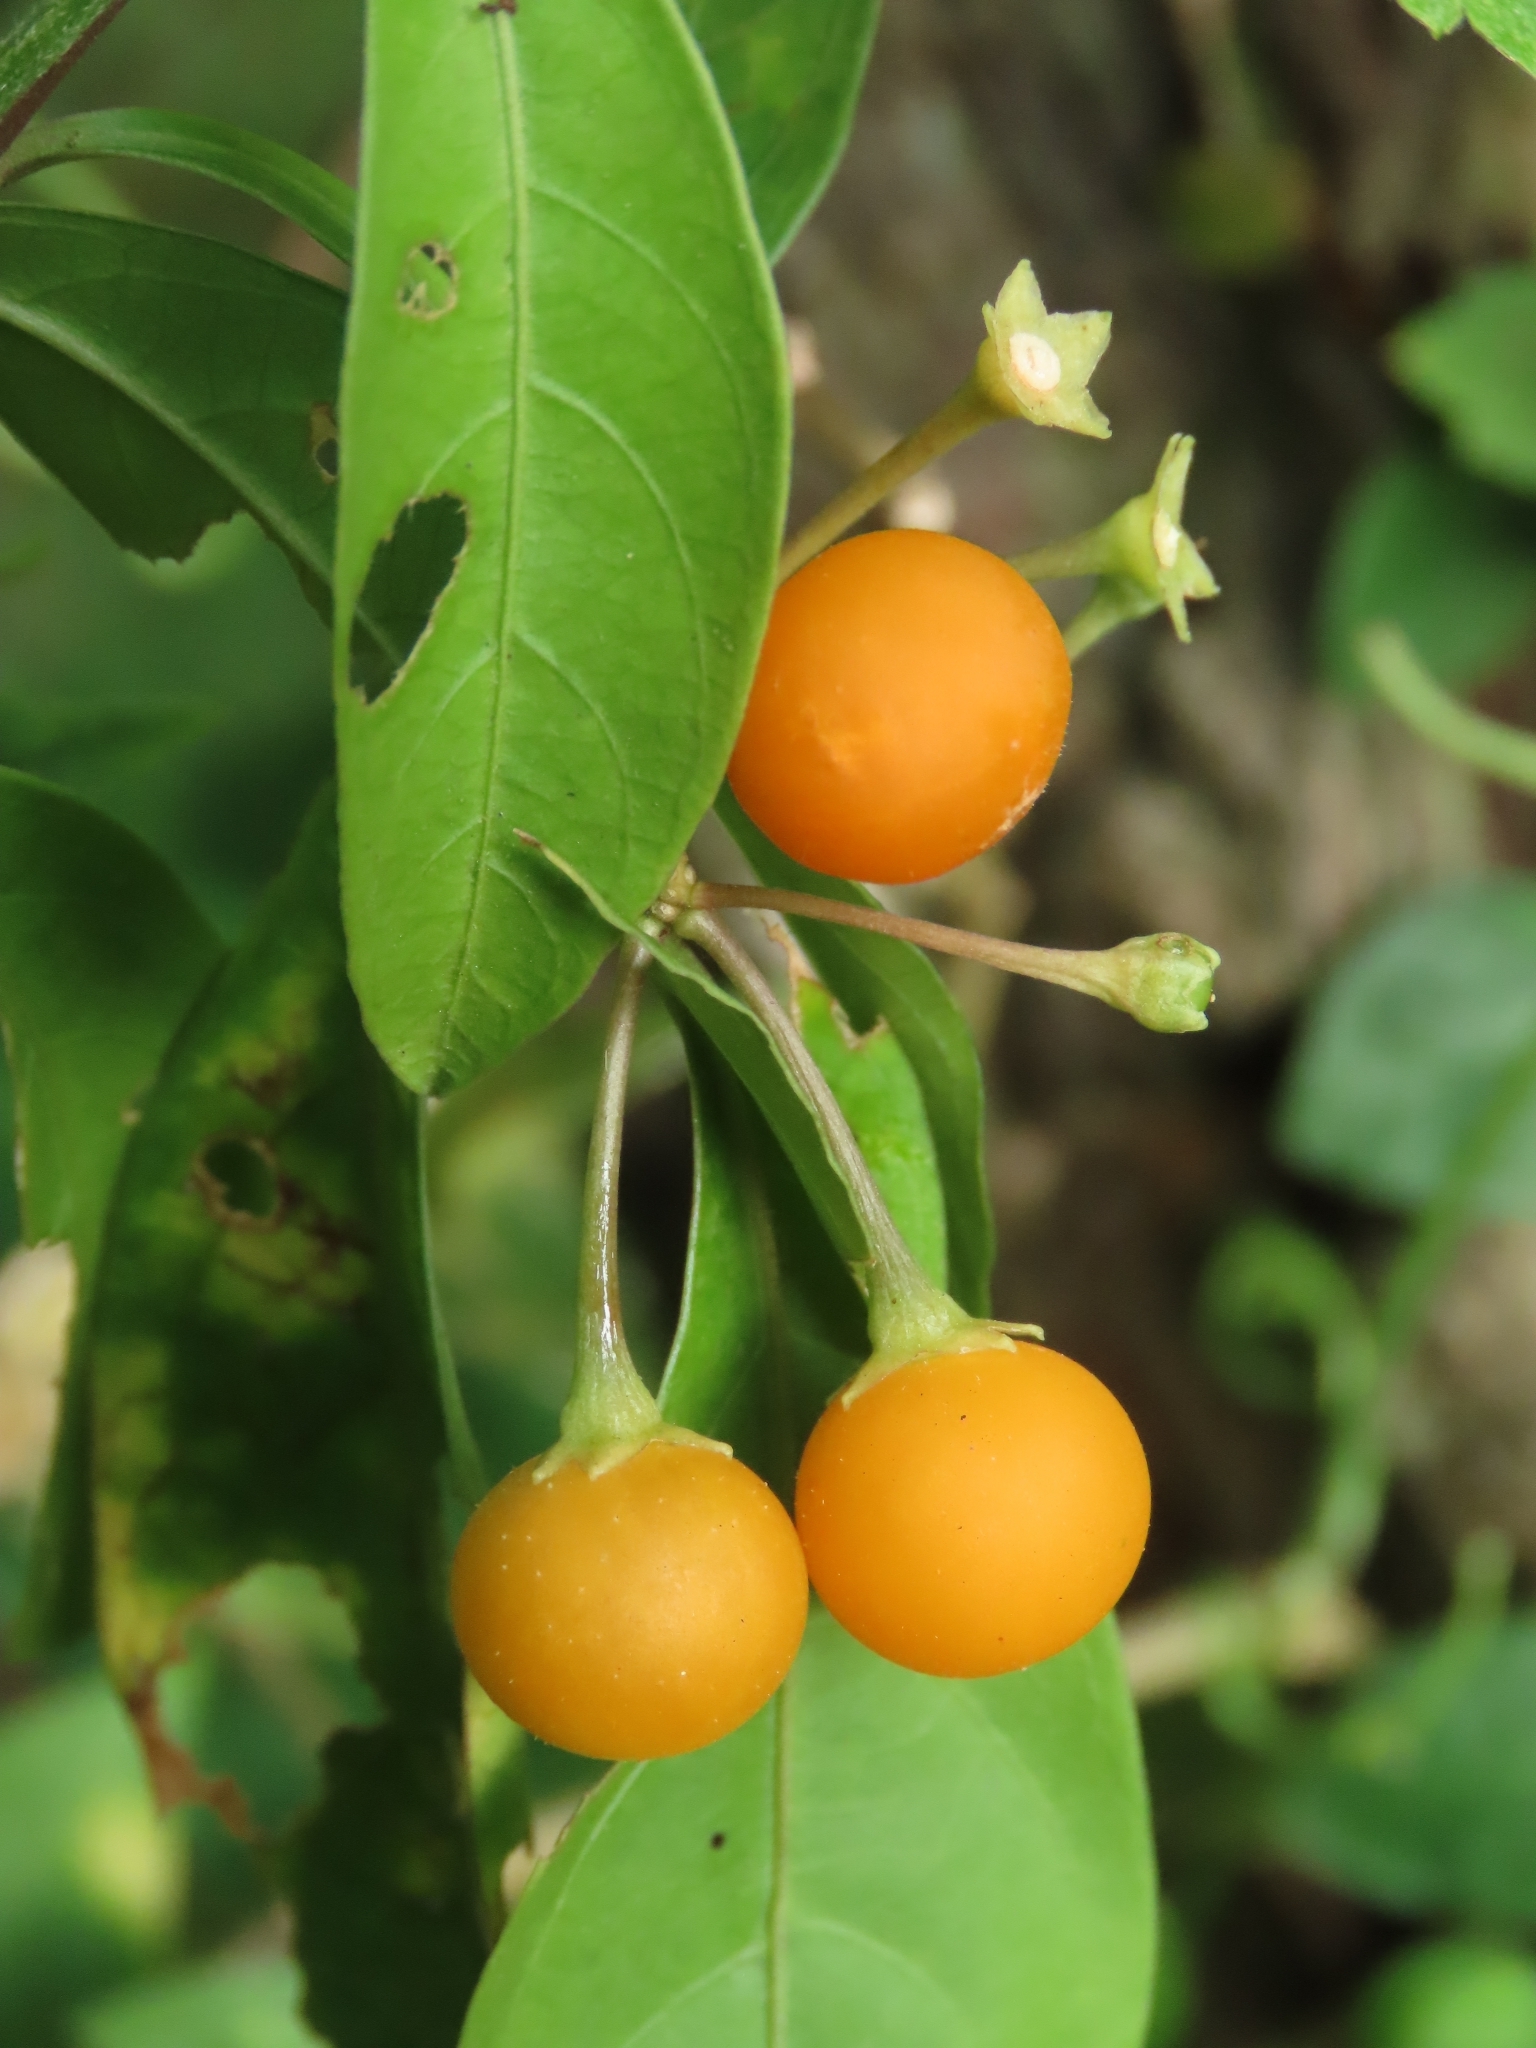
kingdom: Plantae
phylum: Tracheophyta
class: Magnoliopsida
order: Solanales
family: Solanaceae
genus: Solanum
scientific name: Solanum diphyllum
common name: Twoleaf nightshade
